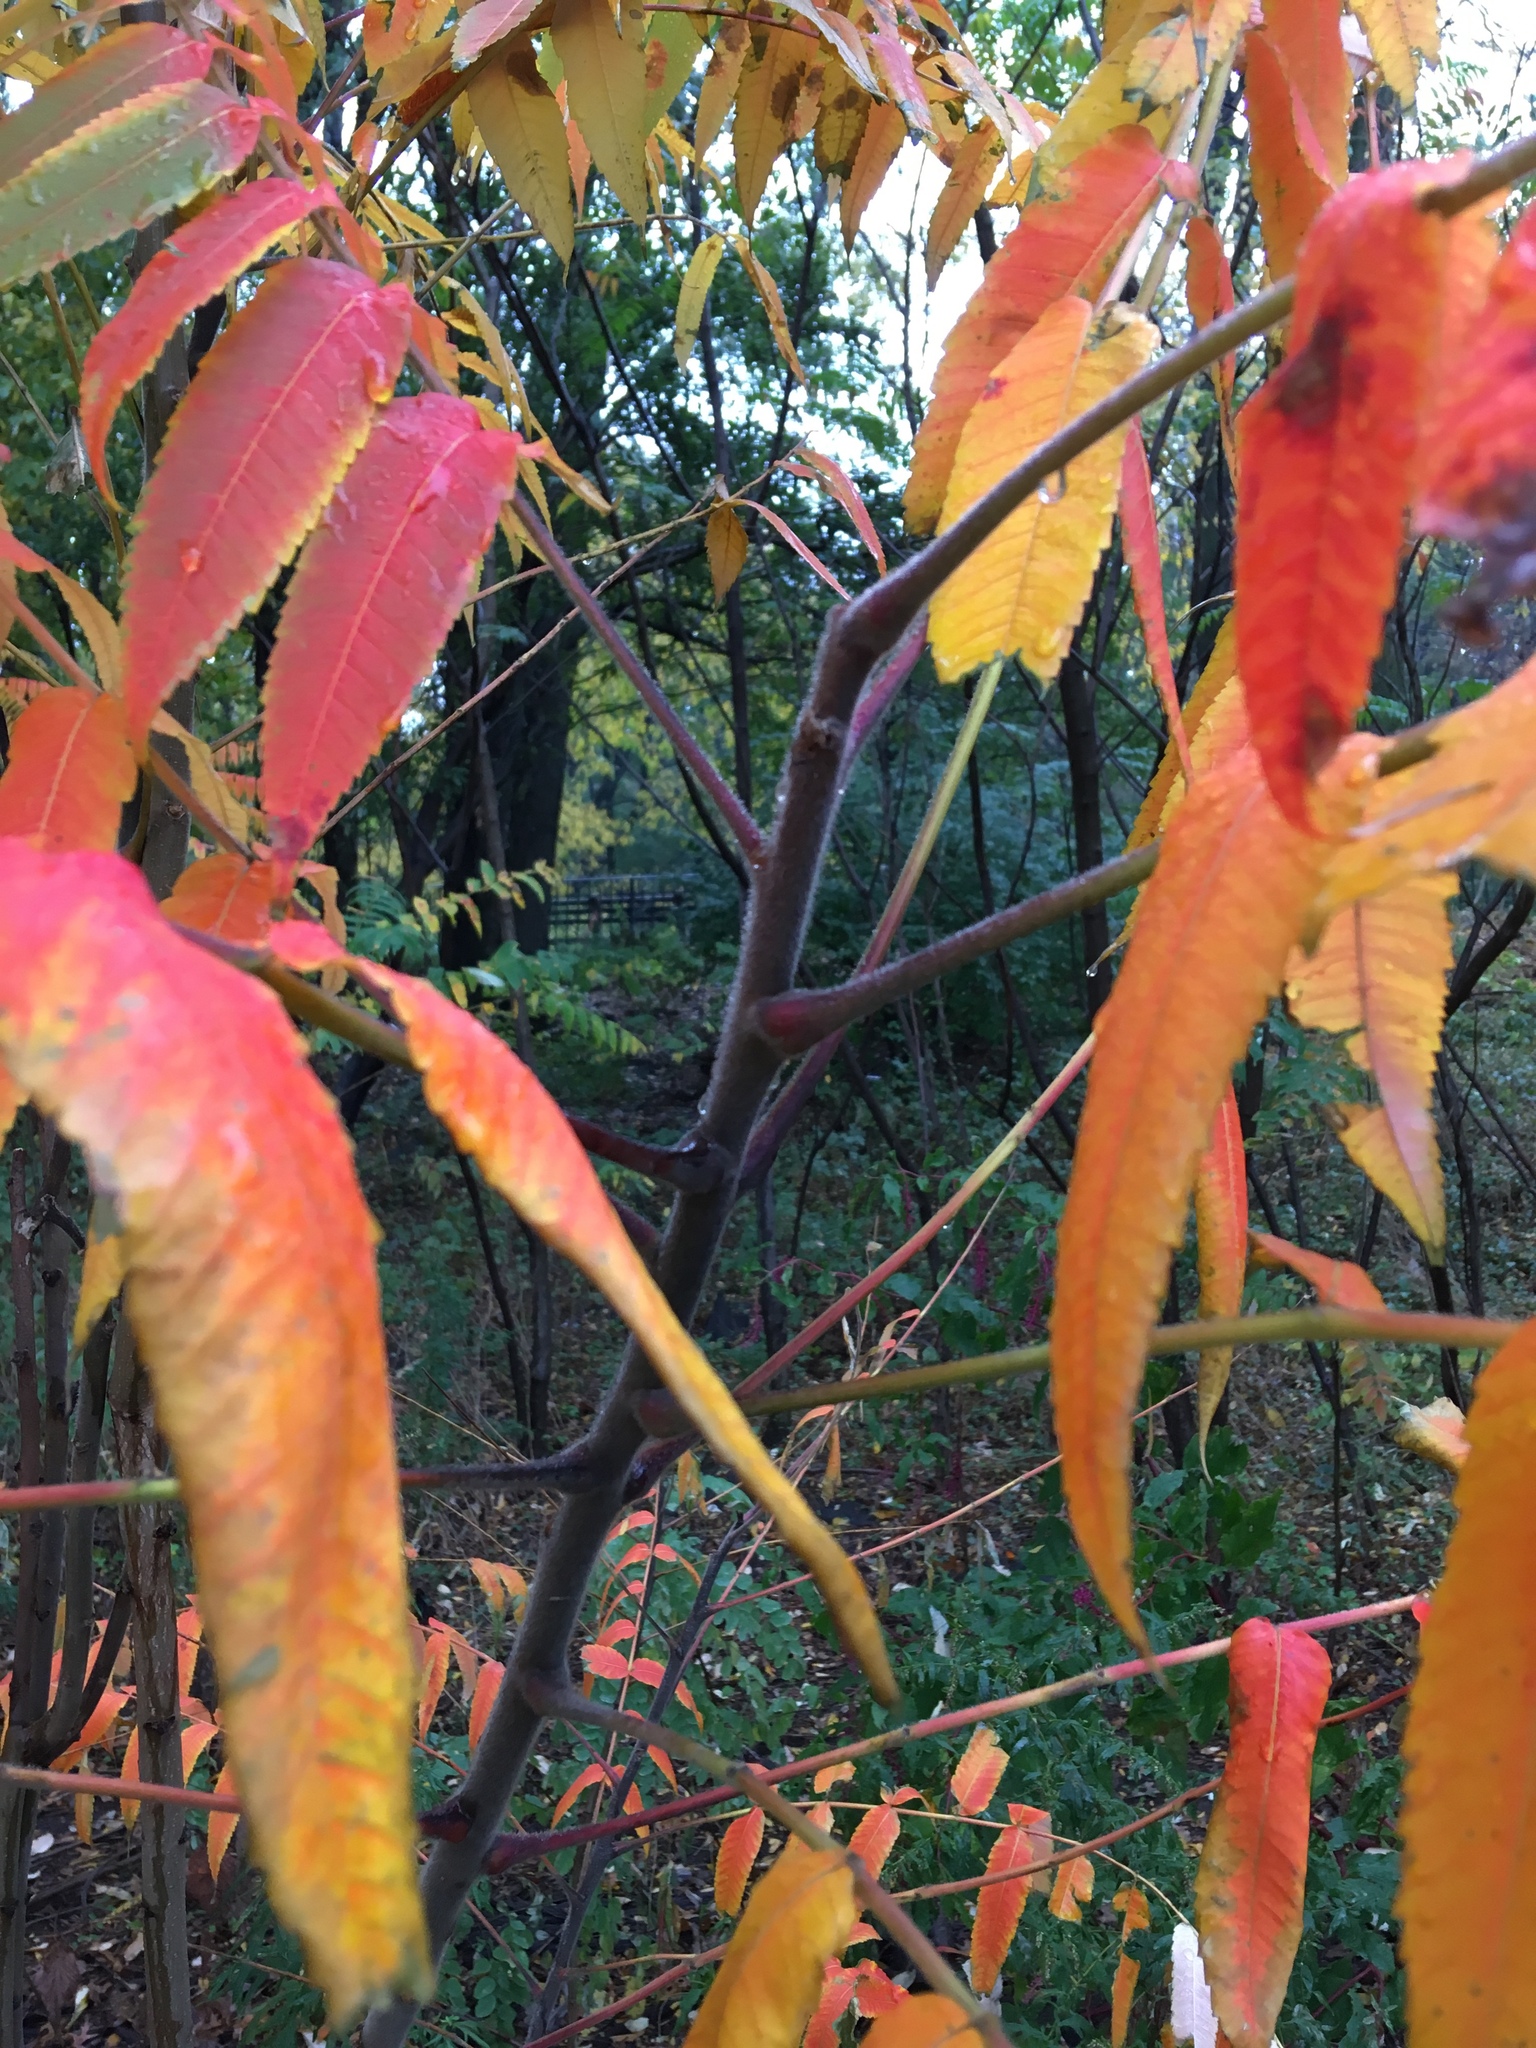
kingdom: Plantae
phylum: Tracheophyta
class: Magnoliopsida
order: Sapindales
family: Anacardiaceae
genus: Rhus
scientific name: Rhus typhina
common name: Staghorn sumac
